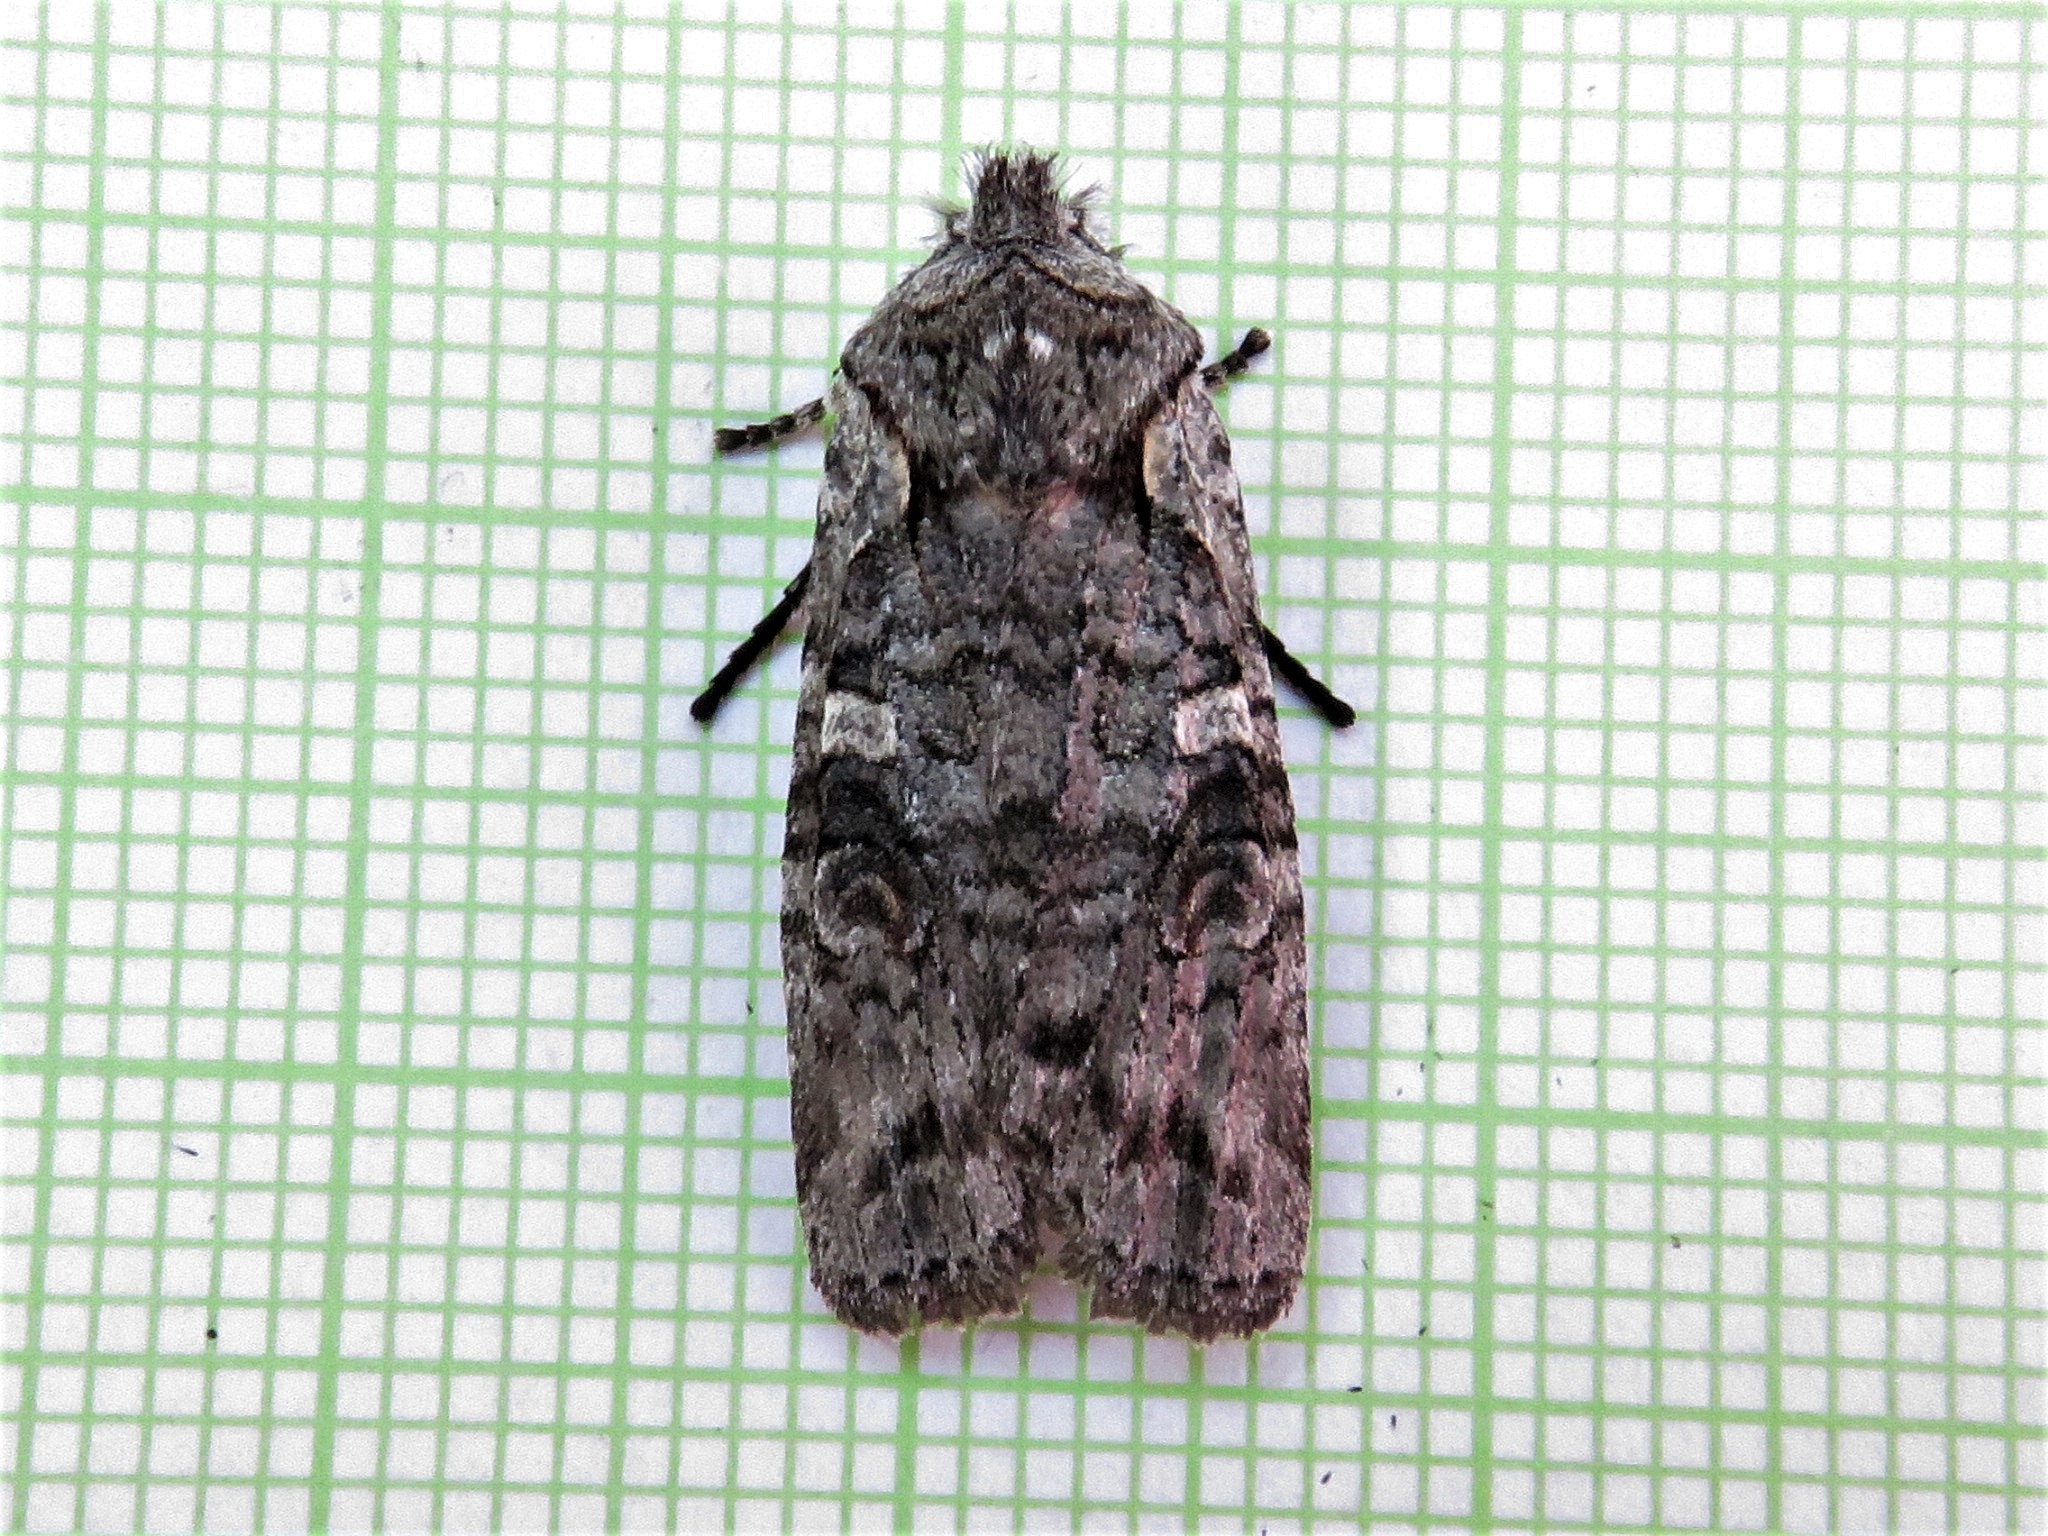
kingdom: Animalia
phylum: Arthropoda
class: Insecta
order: Lepidoptera
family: Noctuidae
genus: Lithophane
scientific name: Lithophane baileyi
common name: Bailey's pinion moth
